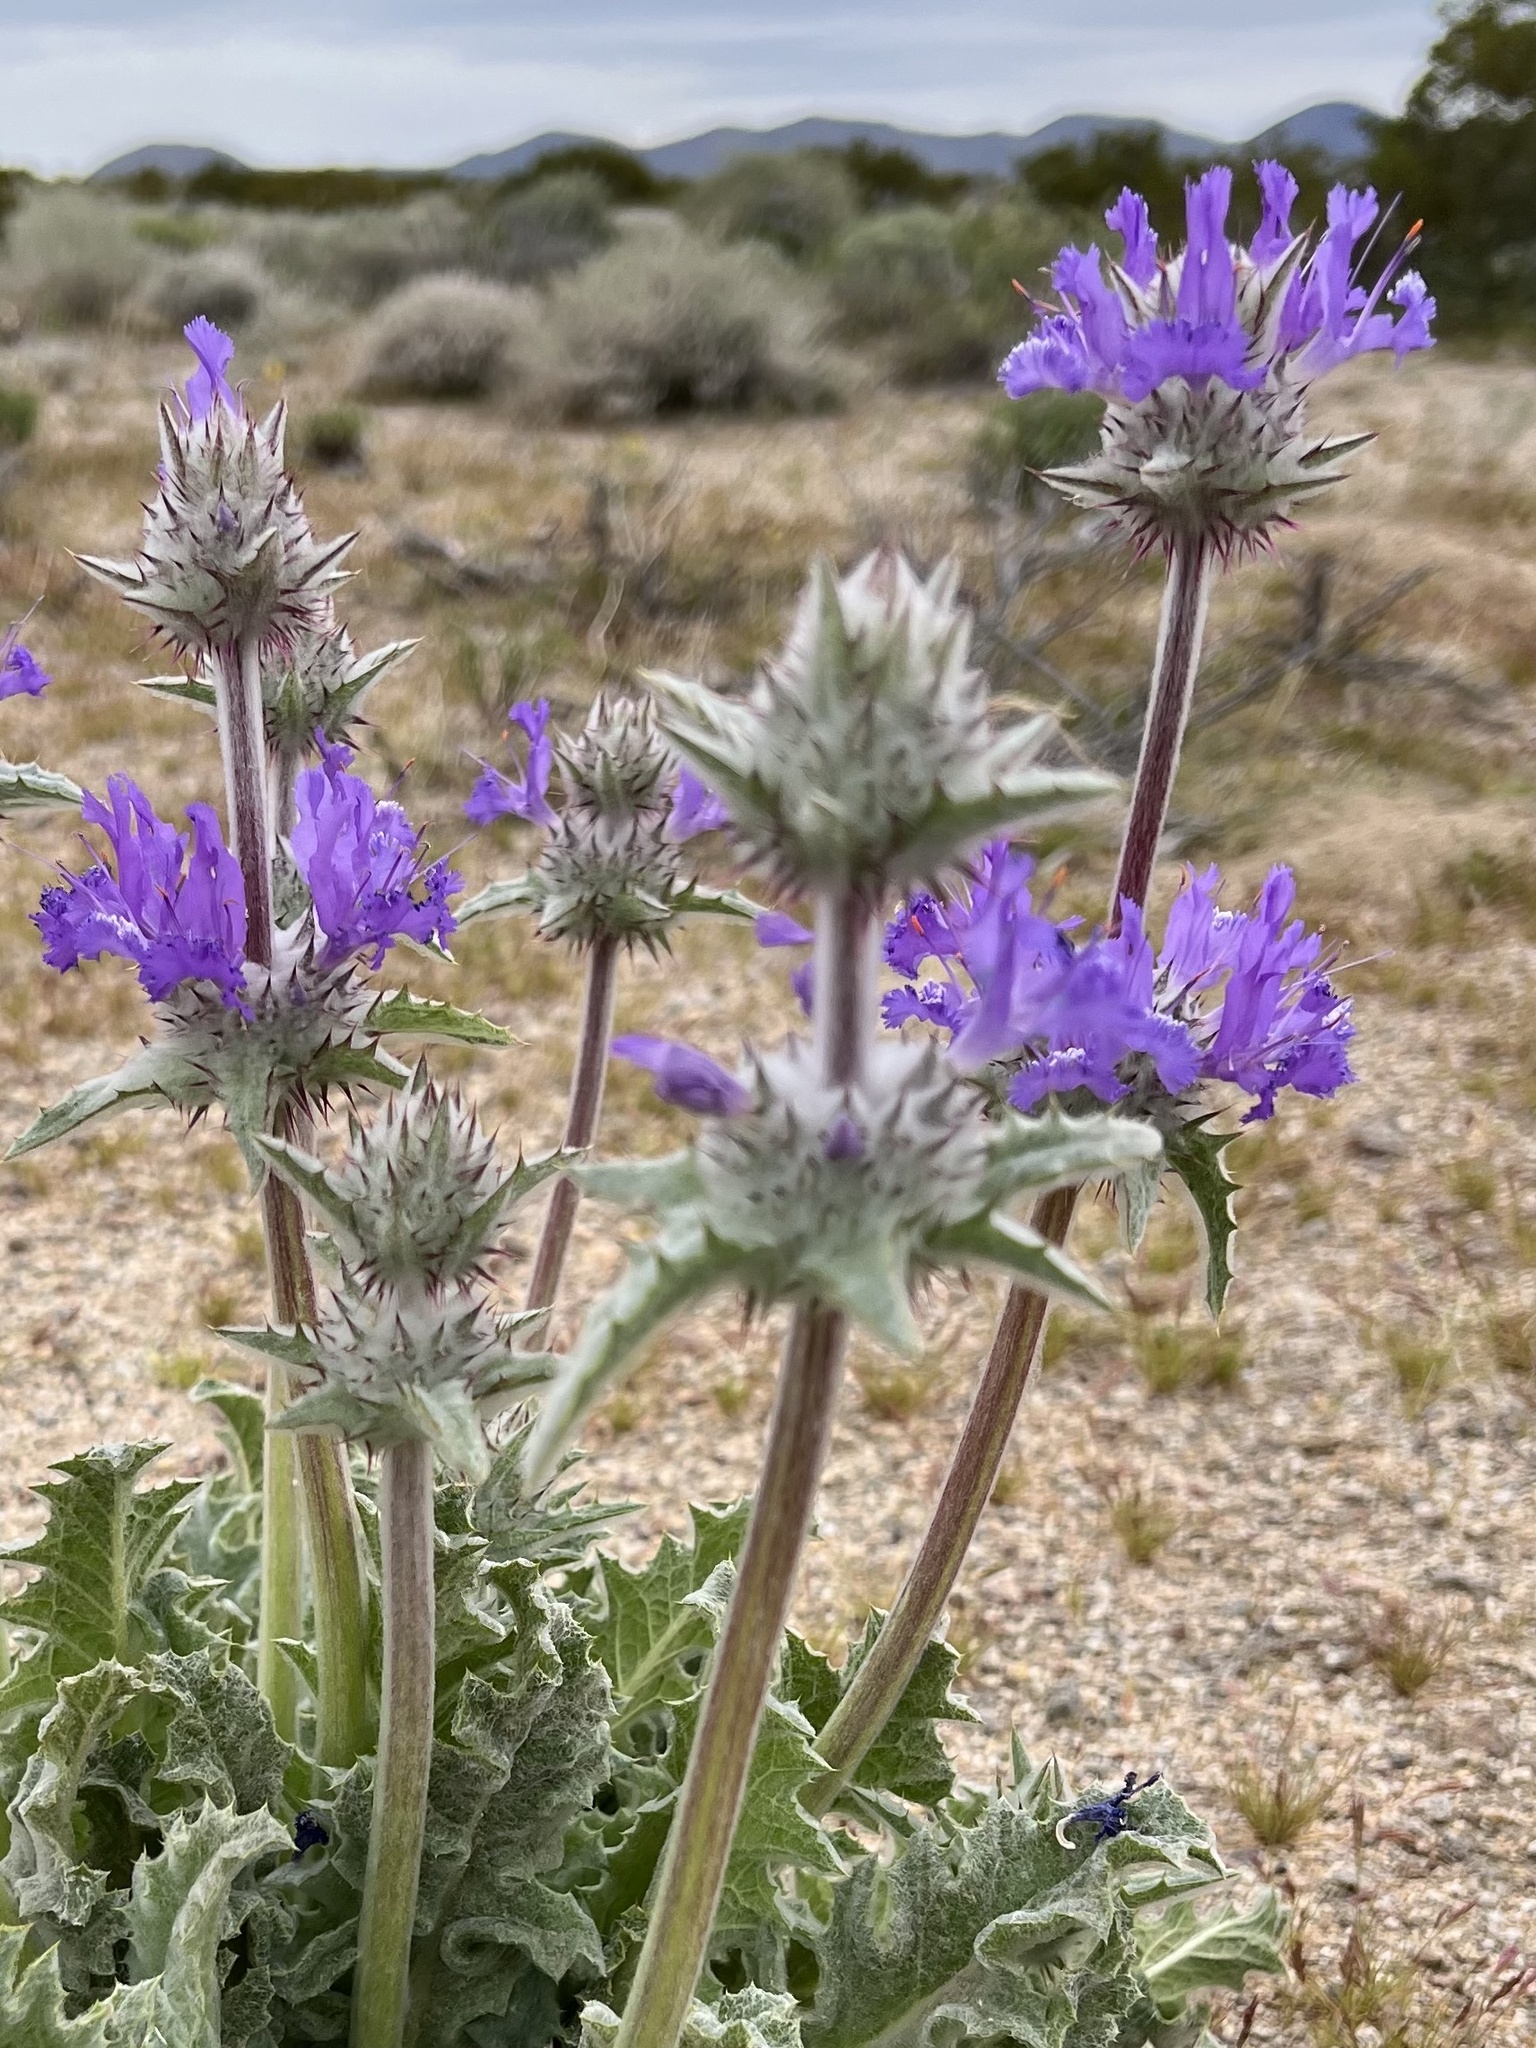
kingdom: Plantae
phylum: Tracheophyta
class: Magnoliopsida
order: Lamiales
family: Lamiaceae
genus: Salvia
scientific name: Salvia carduacea
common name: Thistle sage
